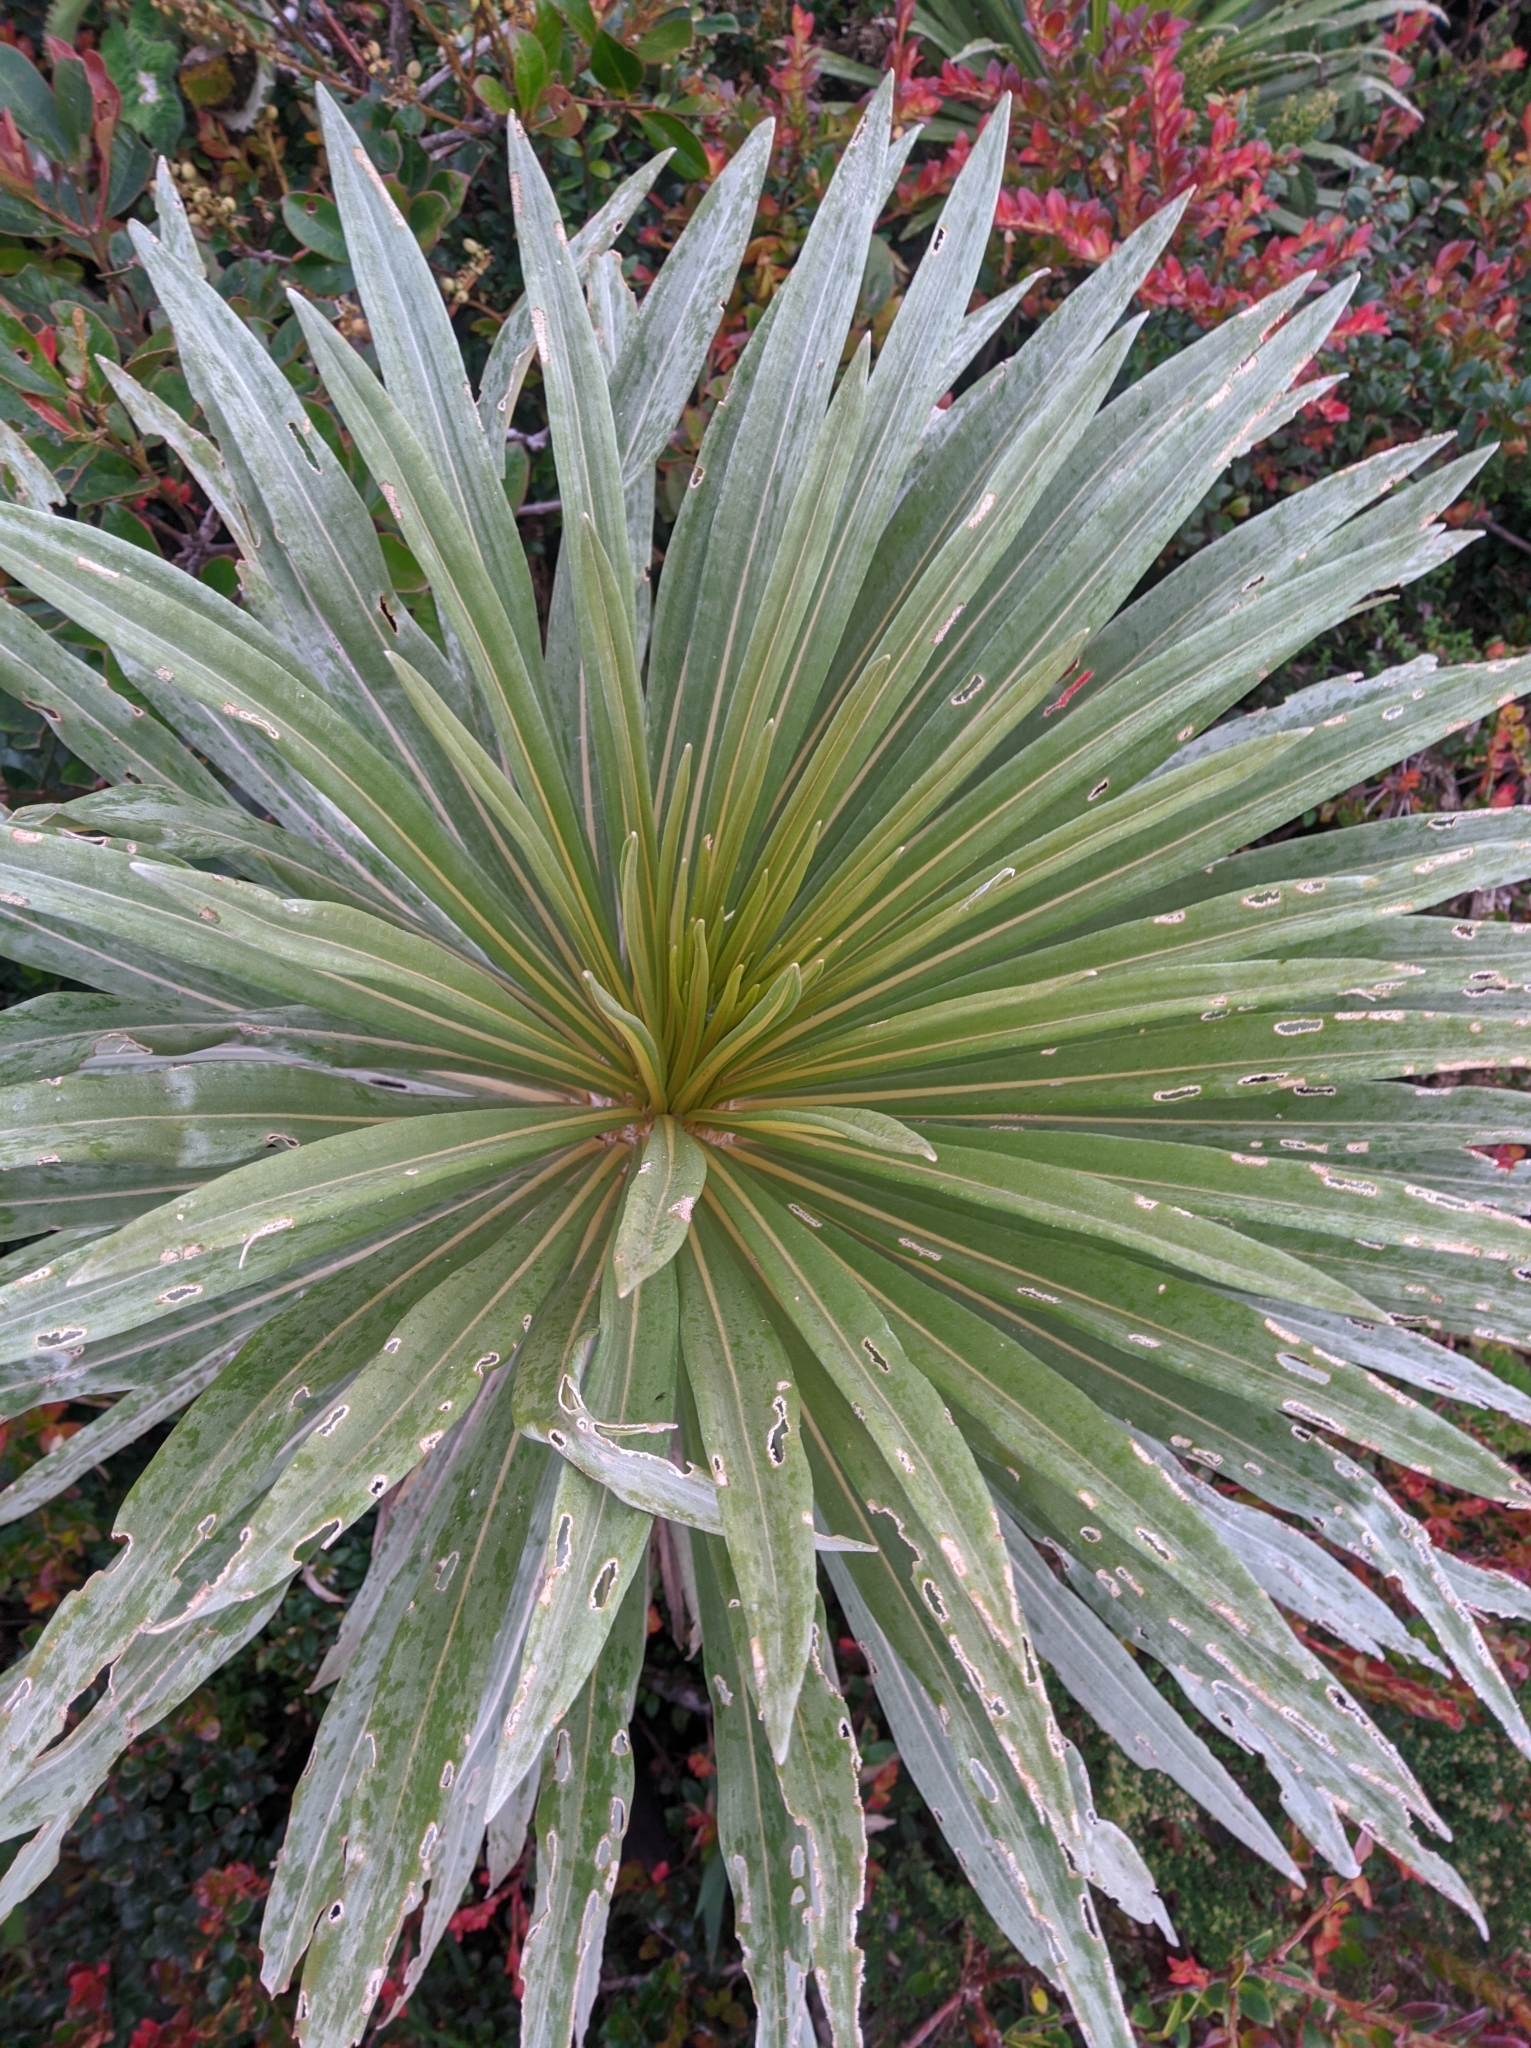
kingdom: Plantae
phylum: Tracheophyta
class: Magnoliopsida
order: Asterales
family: Asteraceae
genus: Espeletia
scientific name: Espeletia paltonioides
